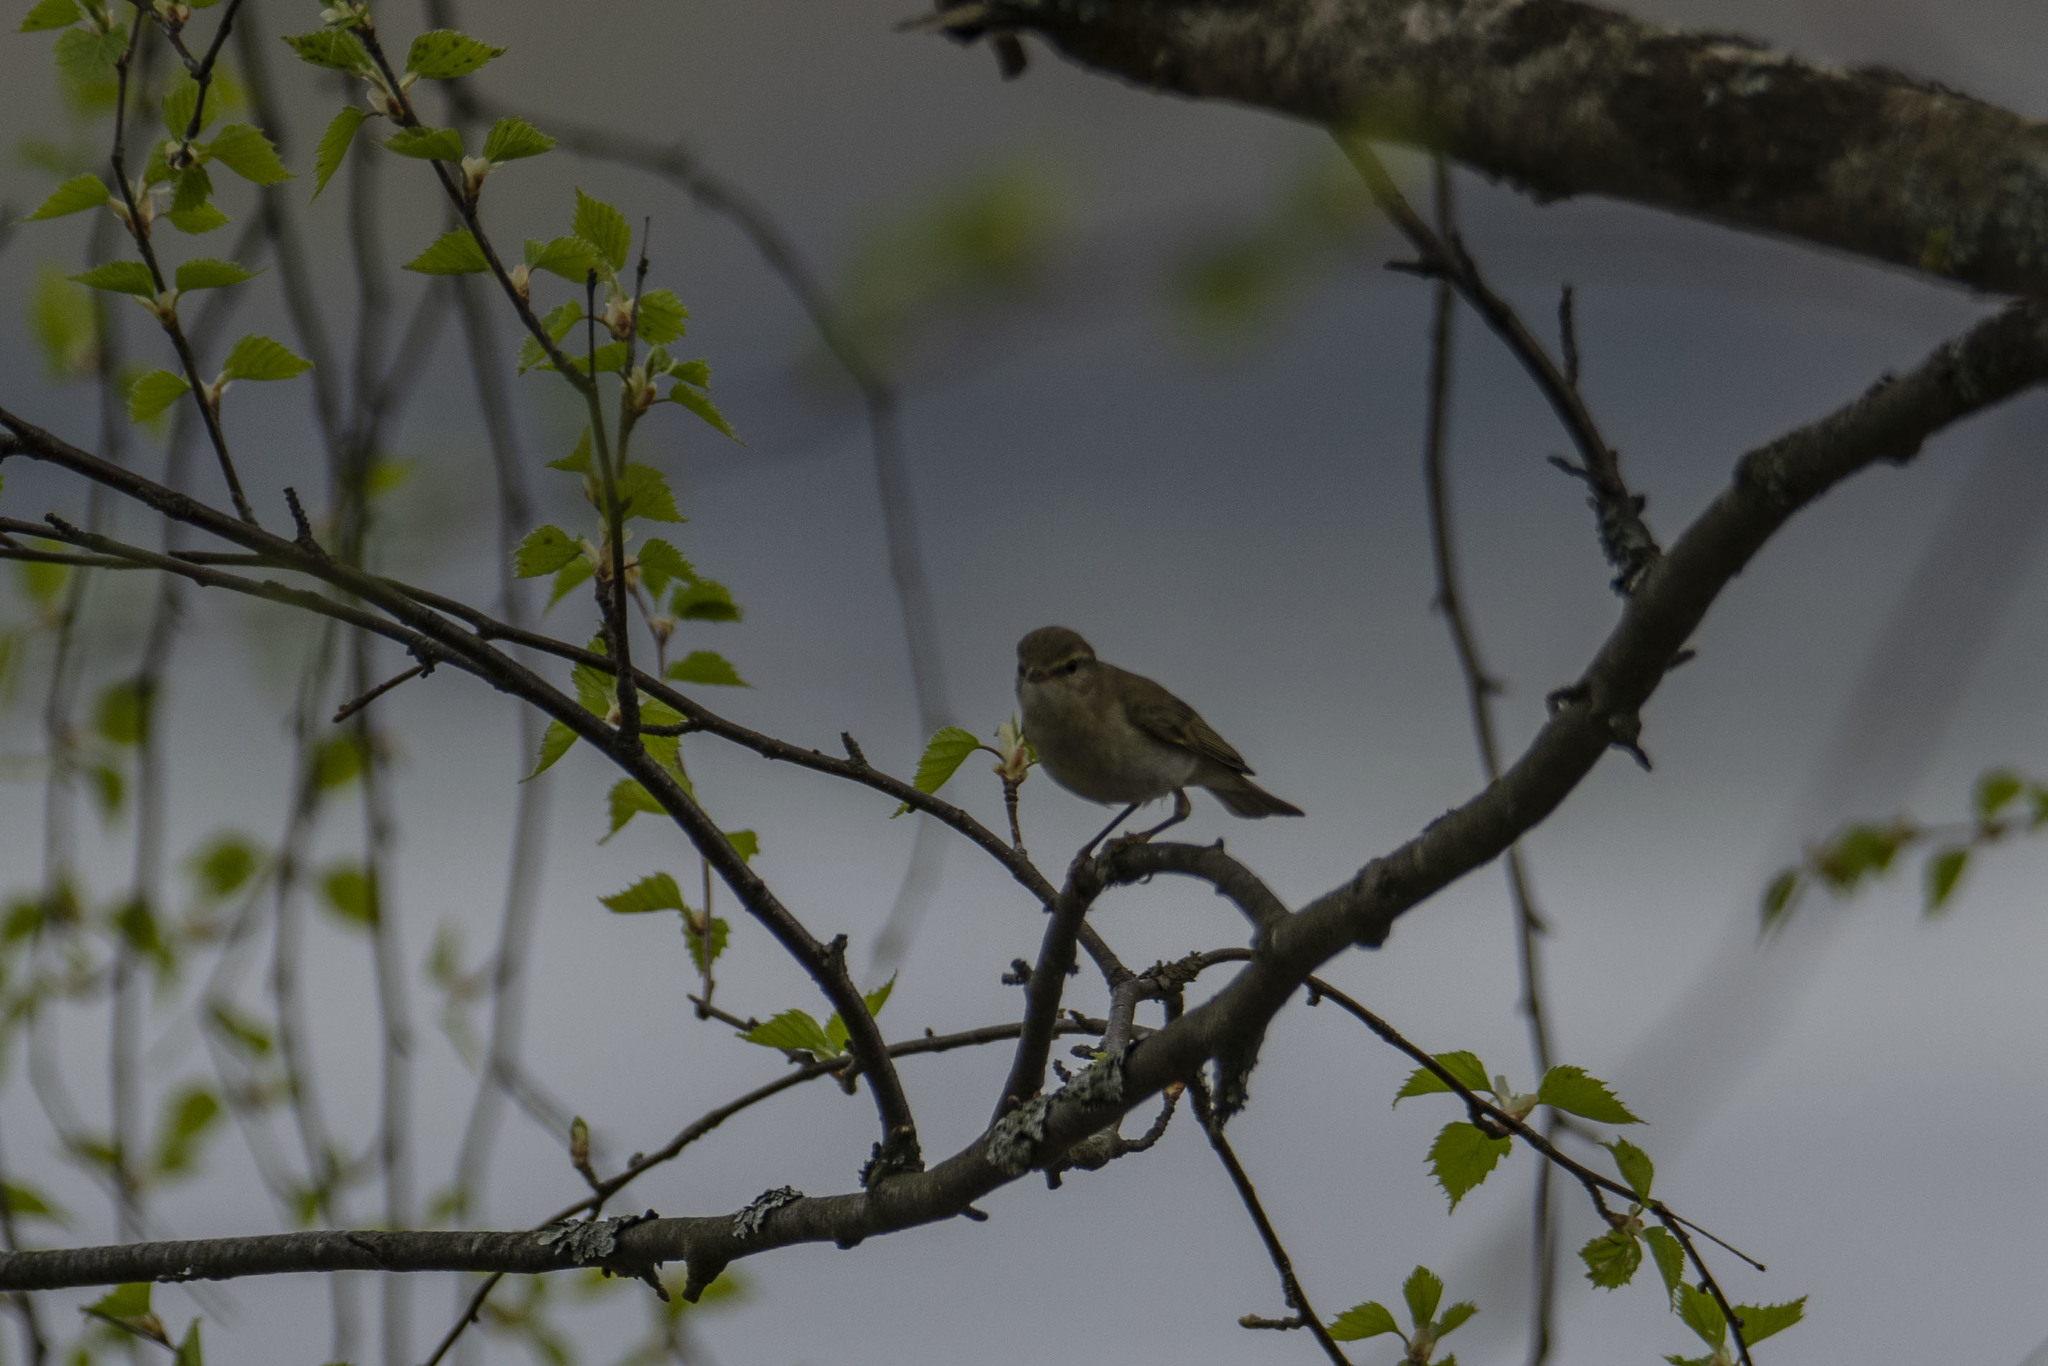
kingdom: Animalia
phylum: Chordata
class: Aves
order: Passeriformes
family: Phylloscopidae
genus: Phylloscopus
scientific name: Phylloscopus collybita
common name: Common chiffchaff
